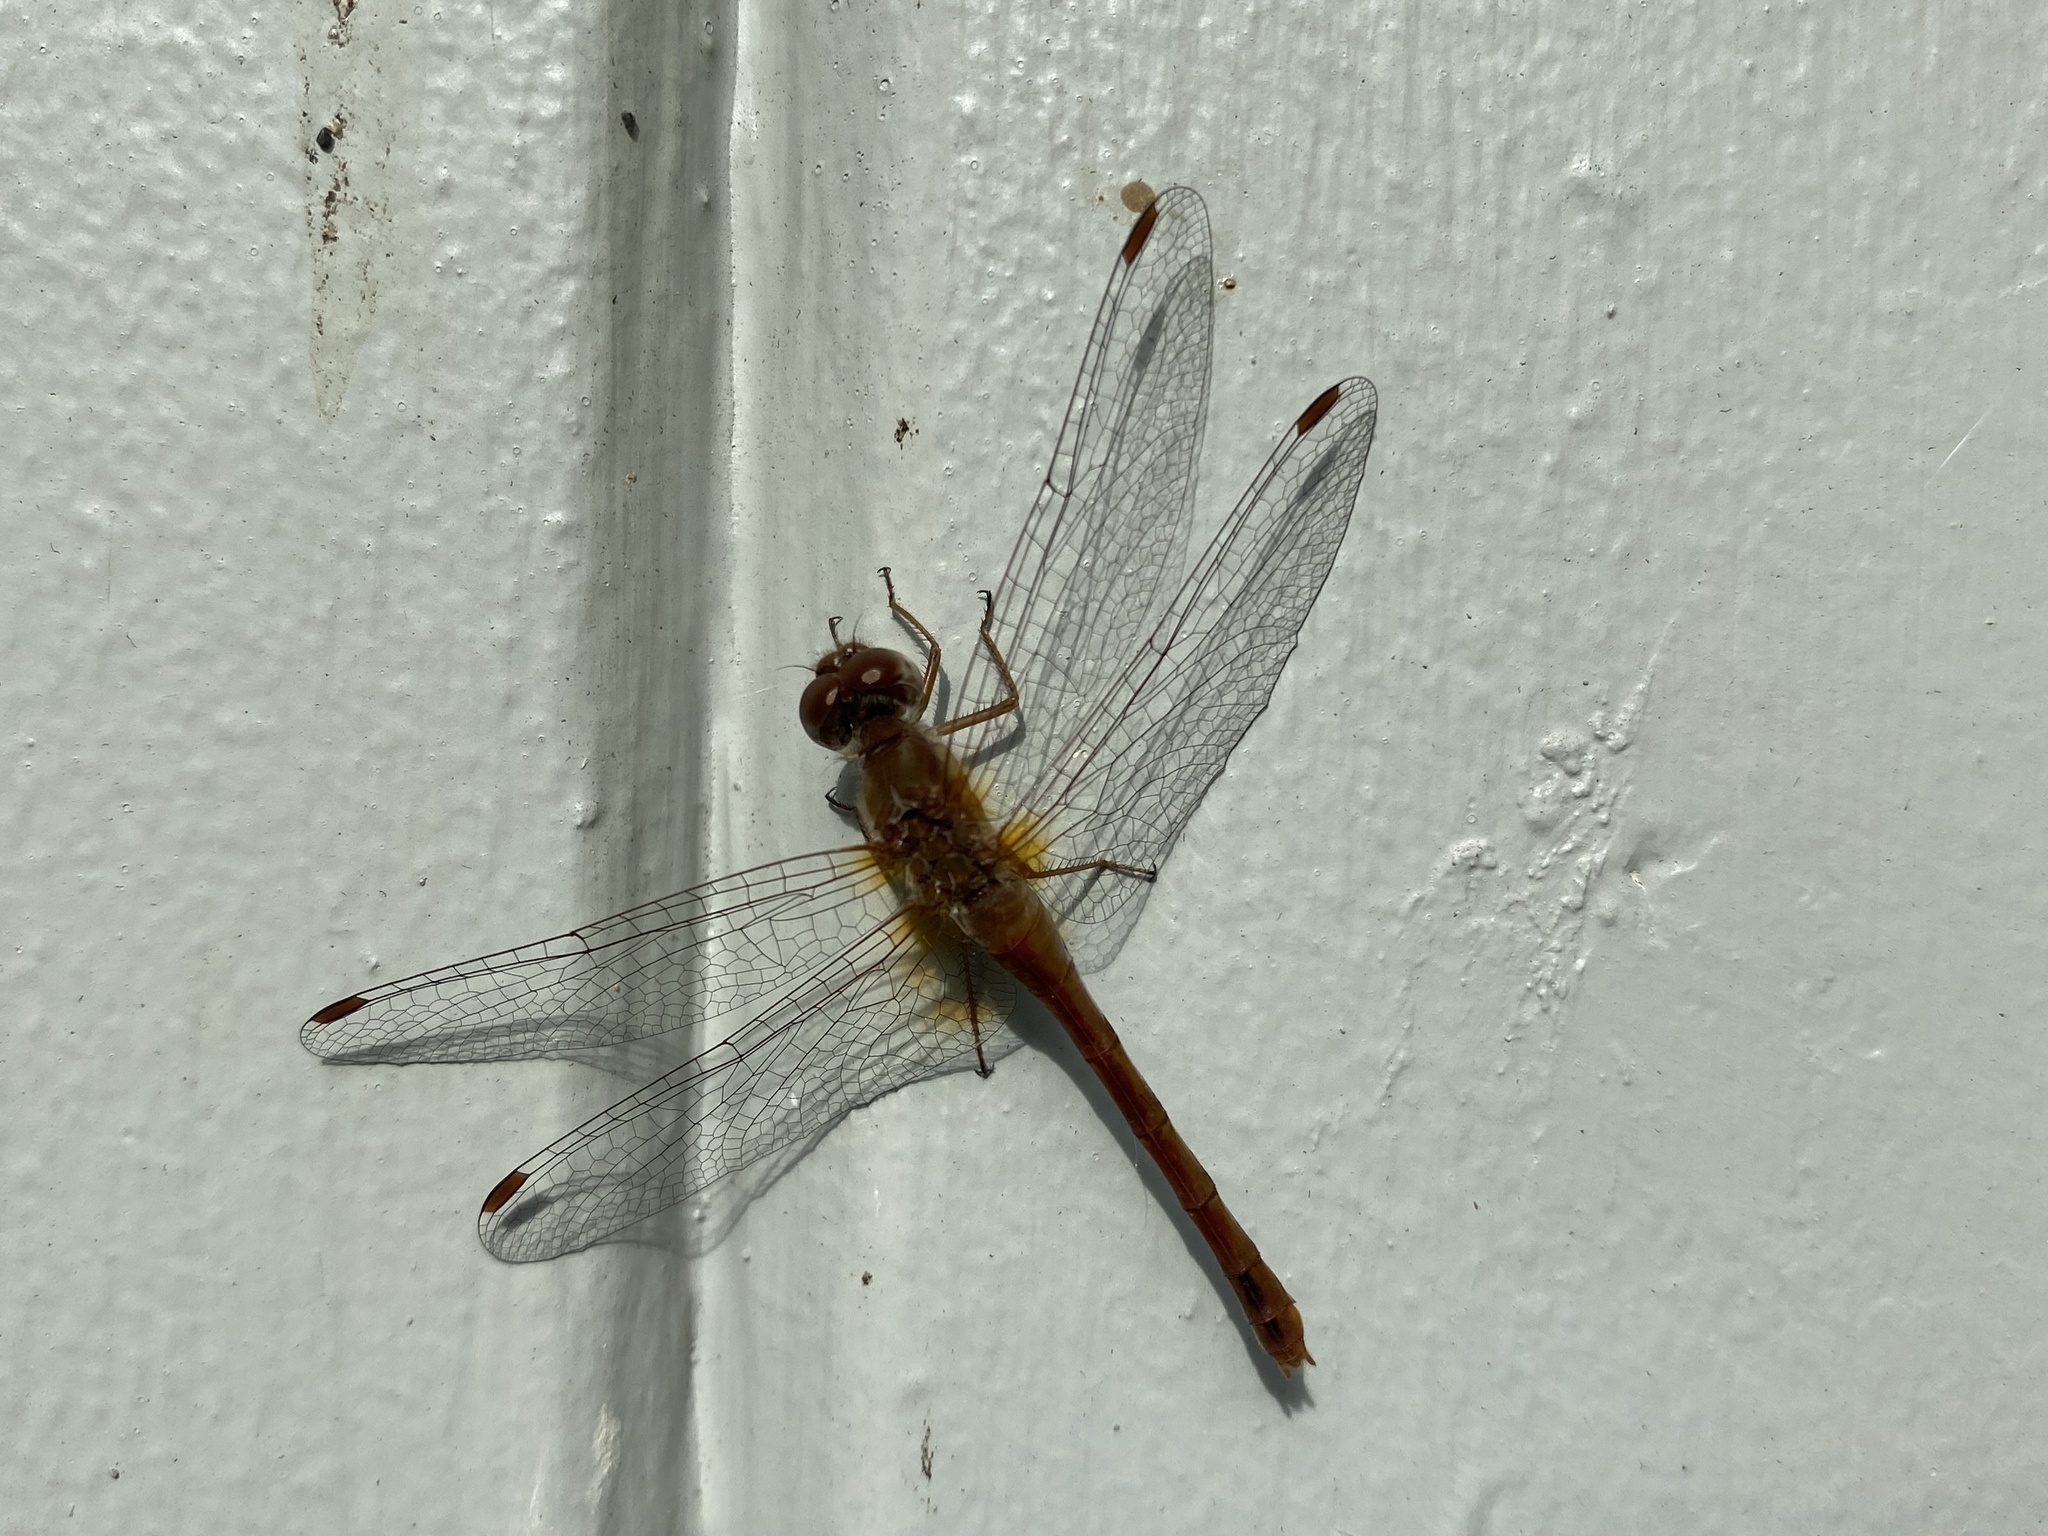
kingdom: Animalia
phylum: Arthropoda
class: Insecta
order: Odonata
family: Libellulidae
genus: Sympetrum
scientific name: Sympetrum vicinum
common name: Autumn meadowhawk
